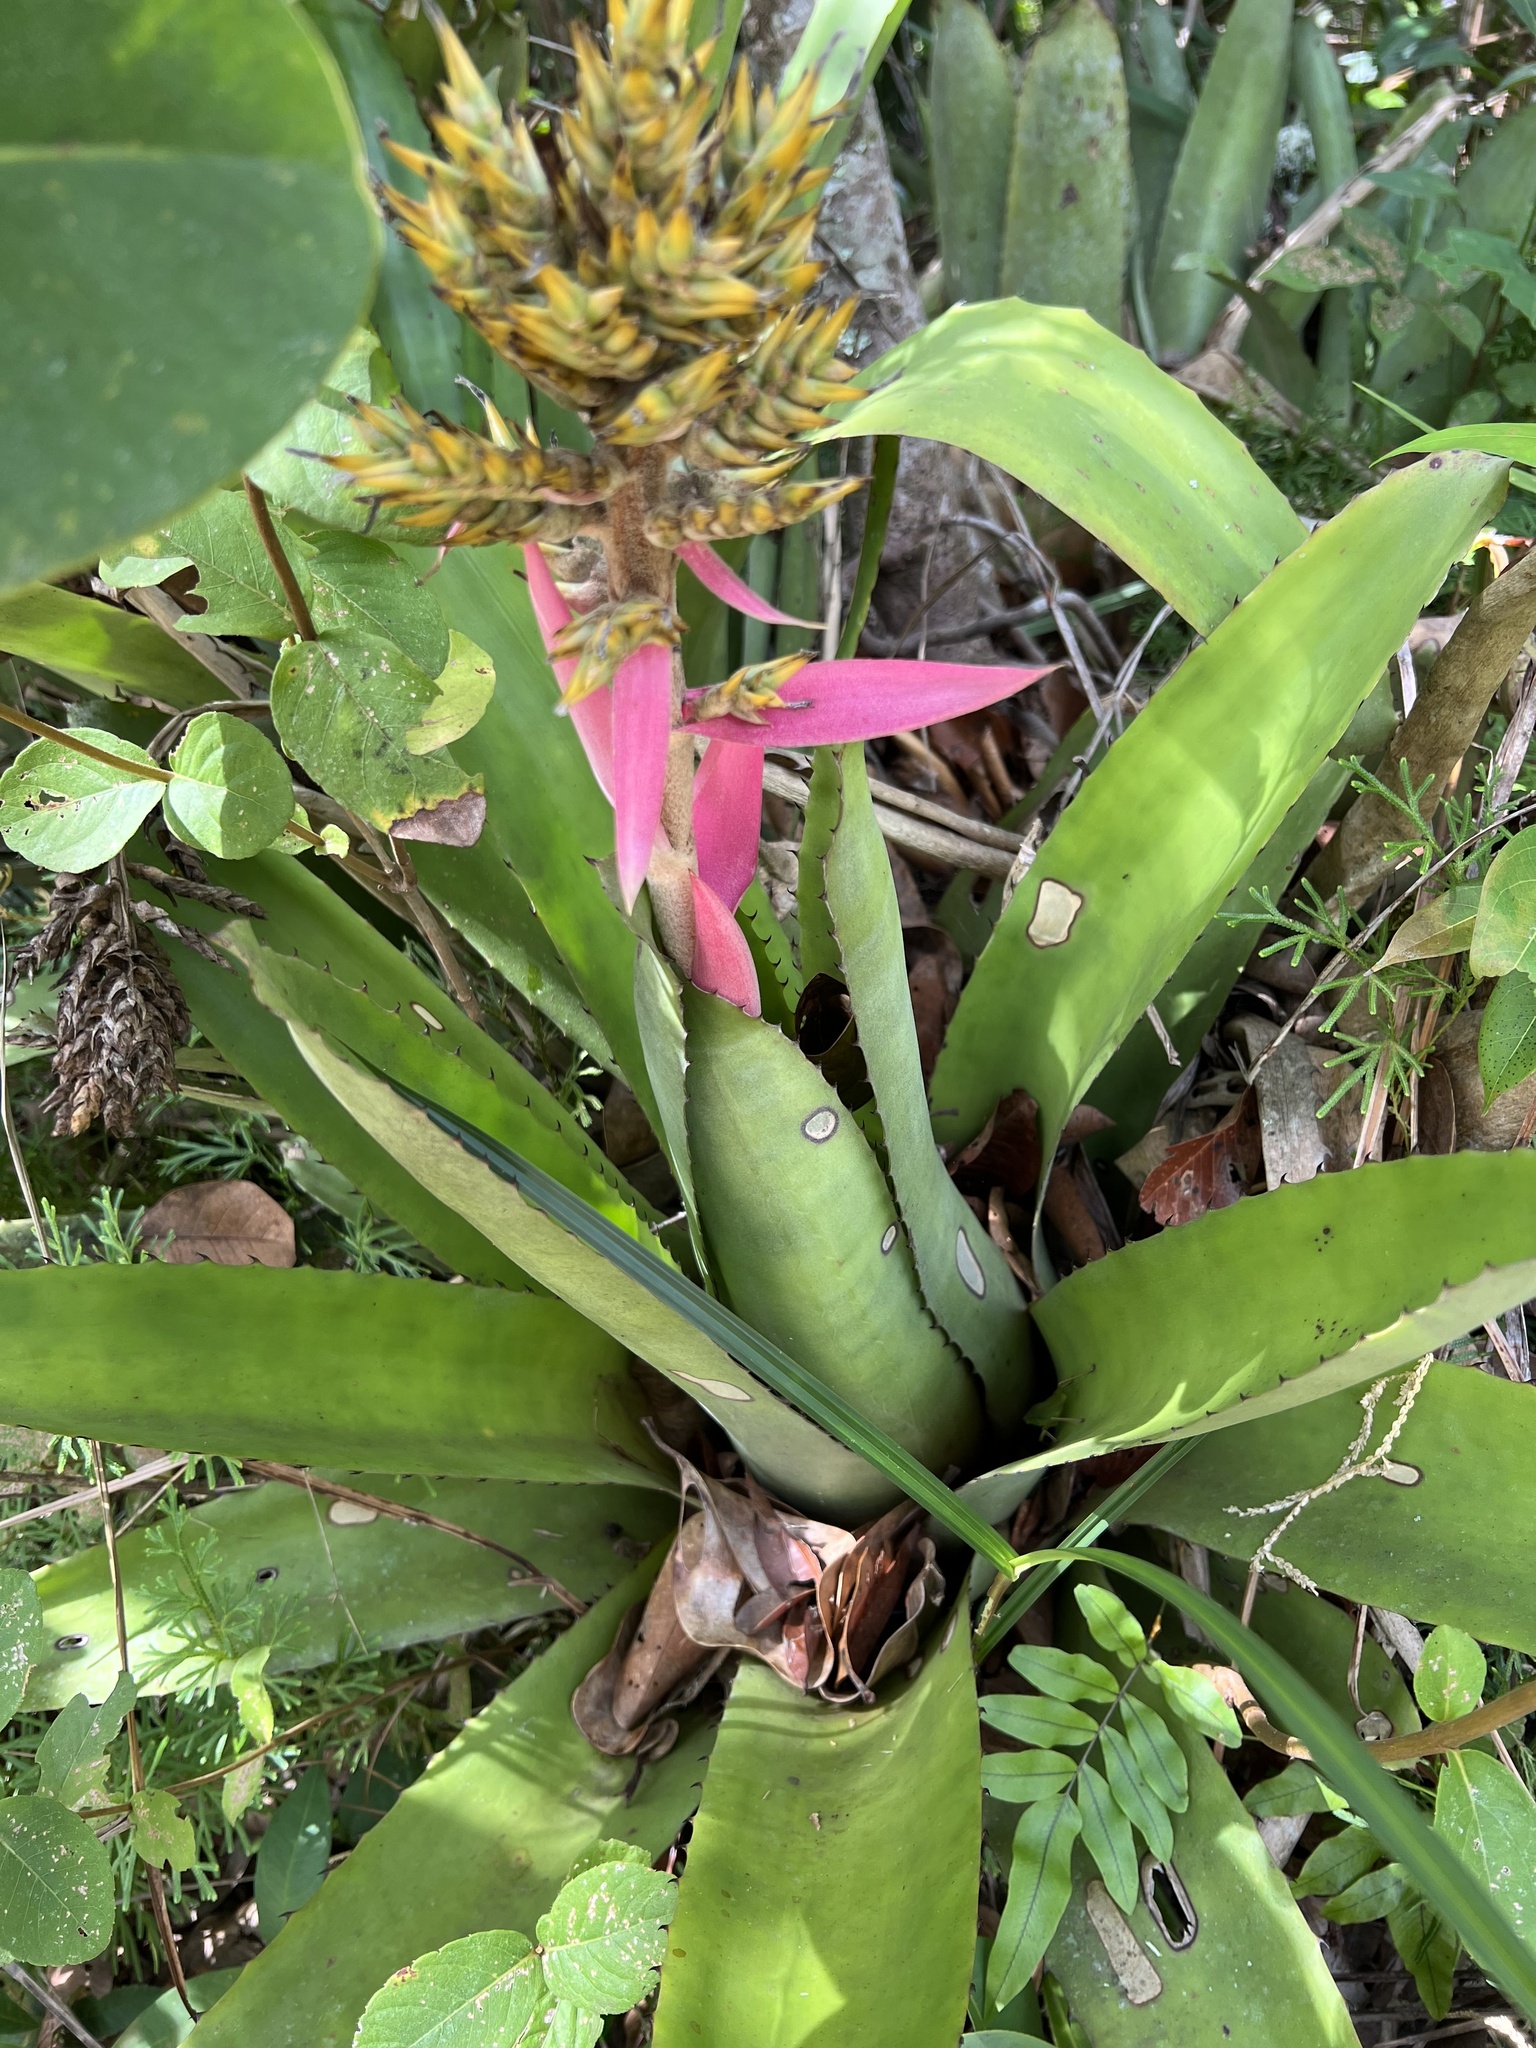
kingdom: Plantae
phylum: Tracheophyta
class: Liliopsida
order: Poales
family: Bromeliaceae
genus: Aechmea
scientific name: Aechmea stenosepala
